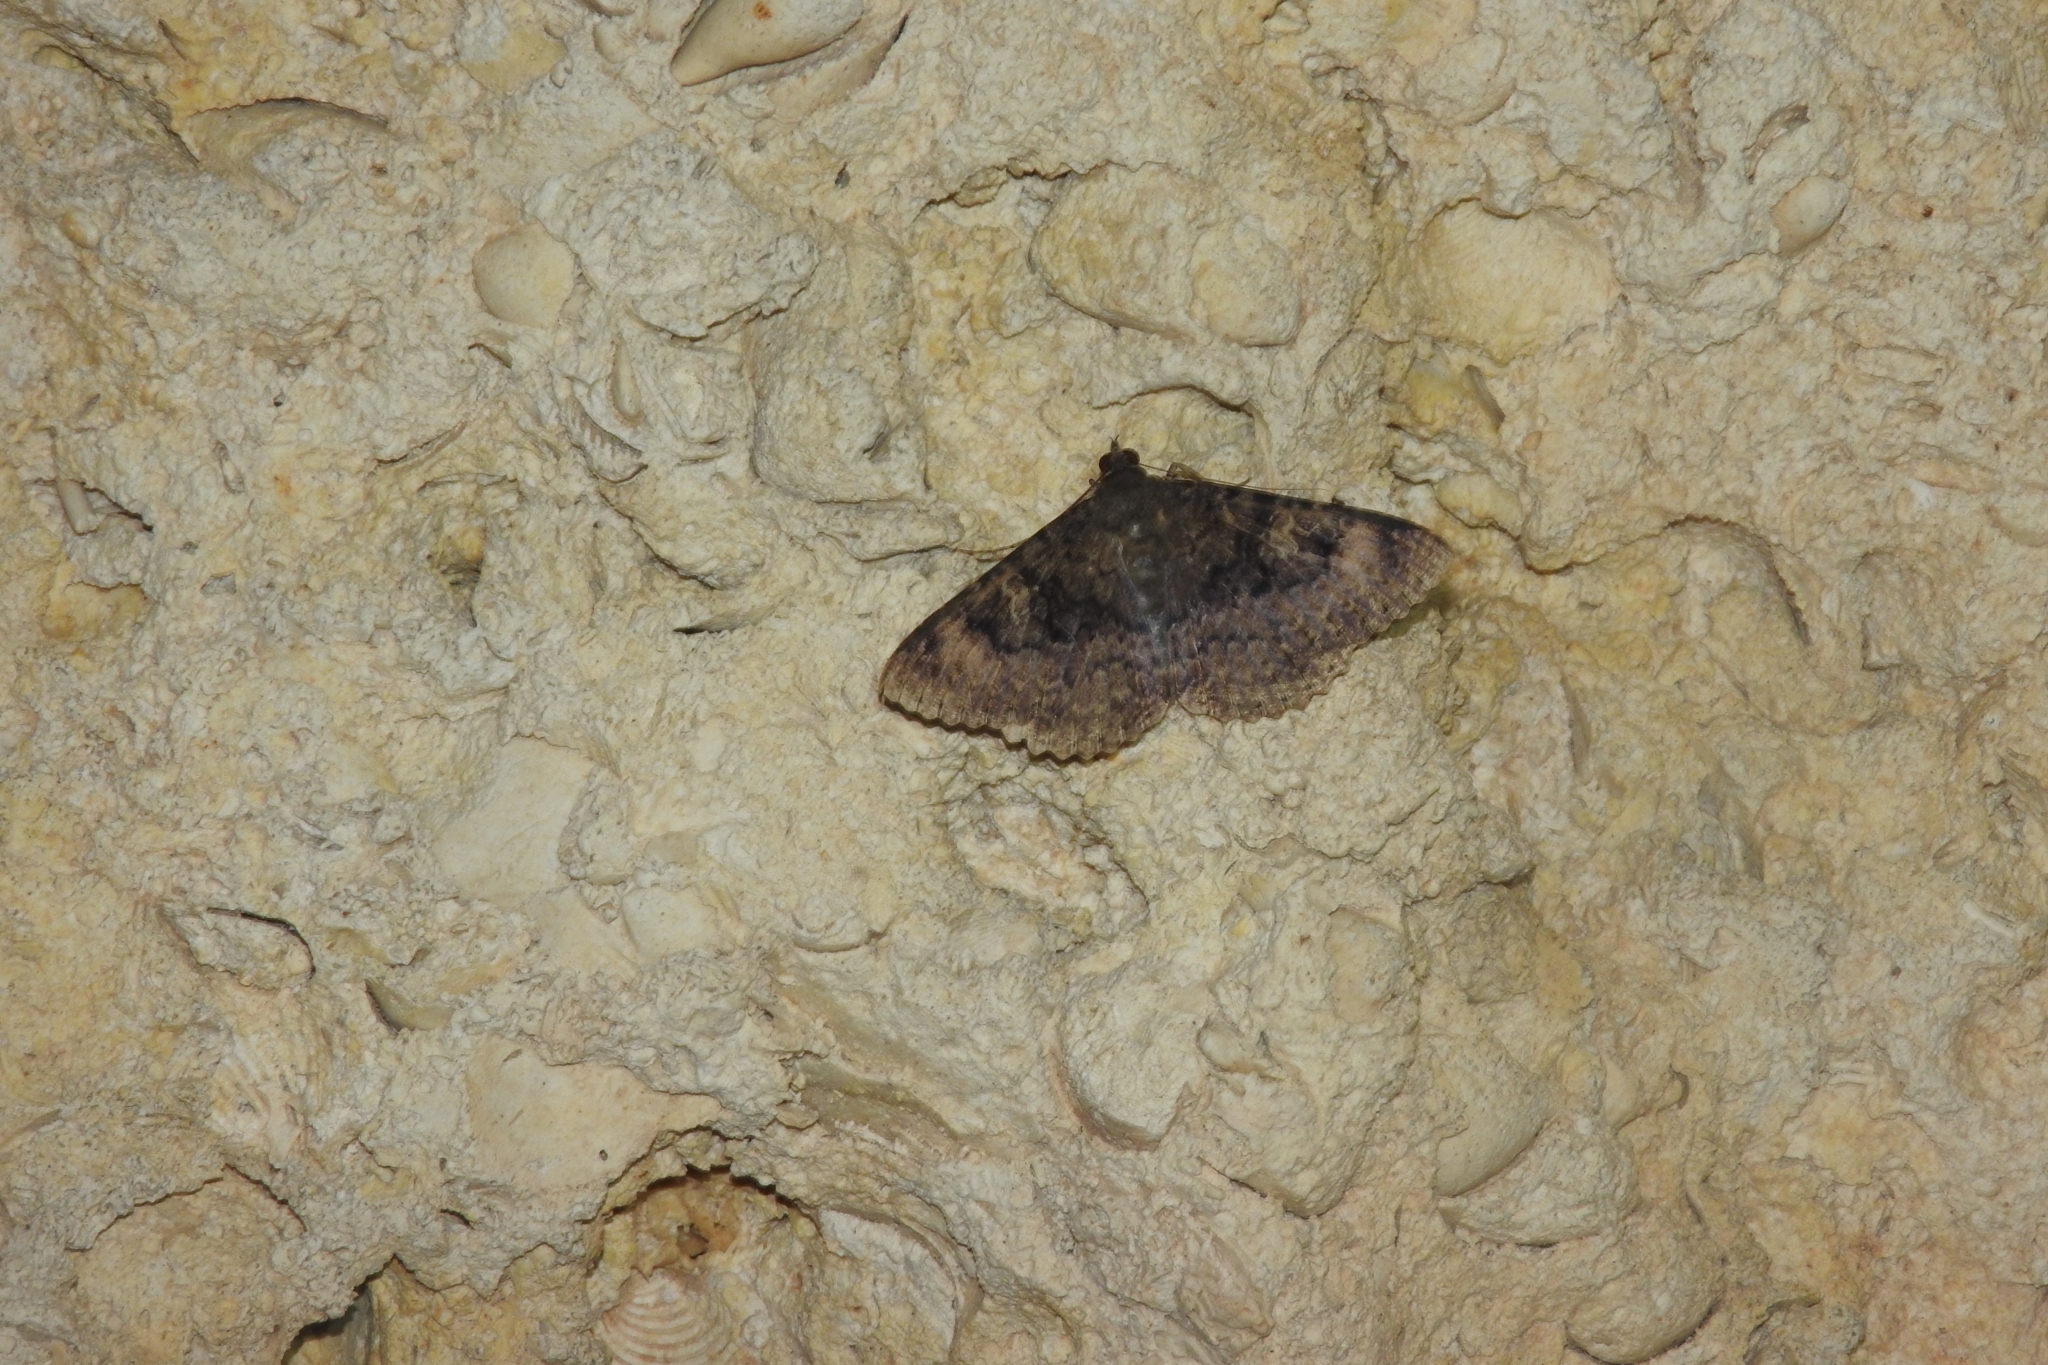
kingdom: Animalia
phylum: Arthropoda
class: Insecta
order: Lepidoptera
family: Erebidae
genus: Latebraria
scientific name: Latebraria amphipyroides
